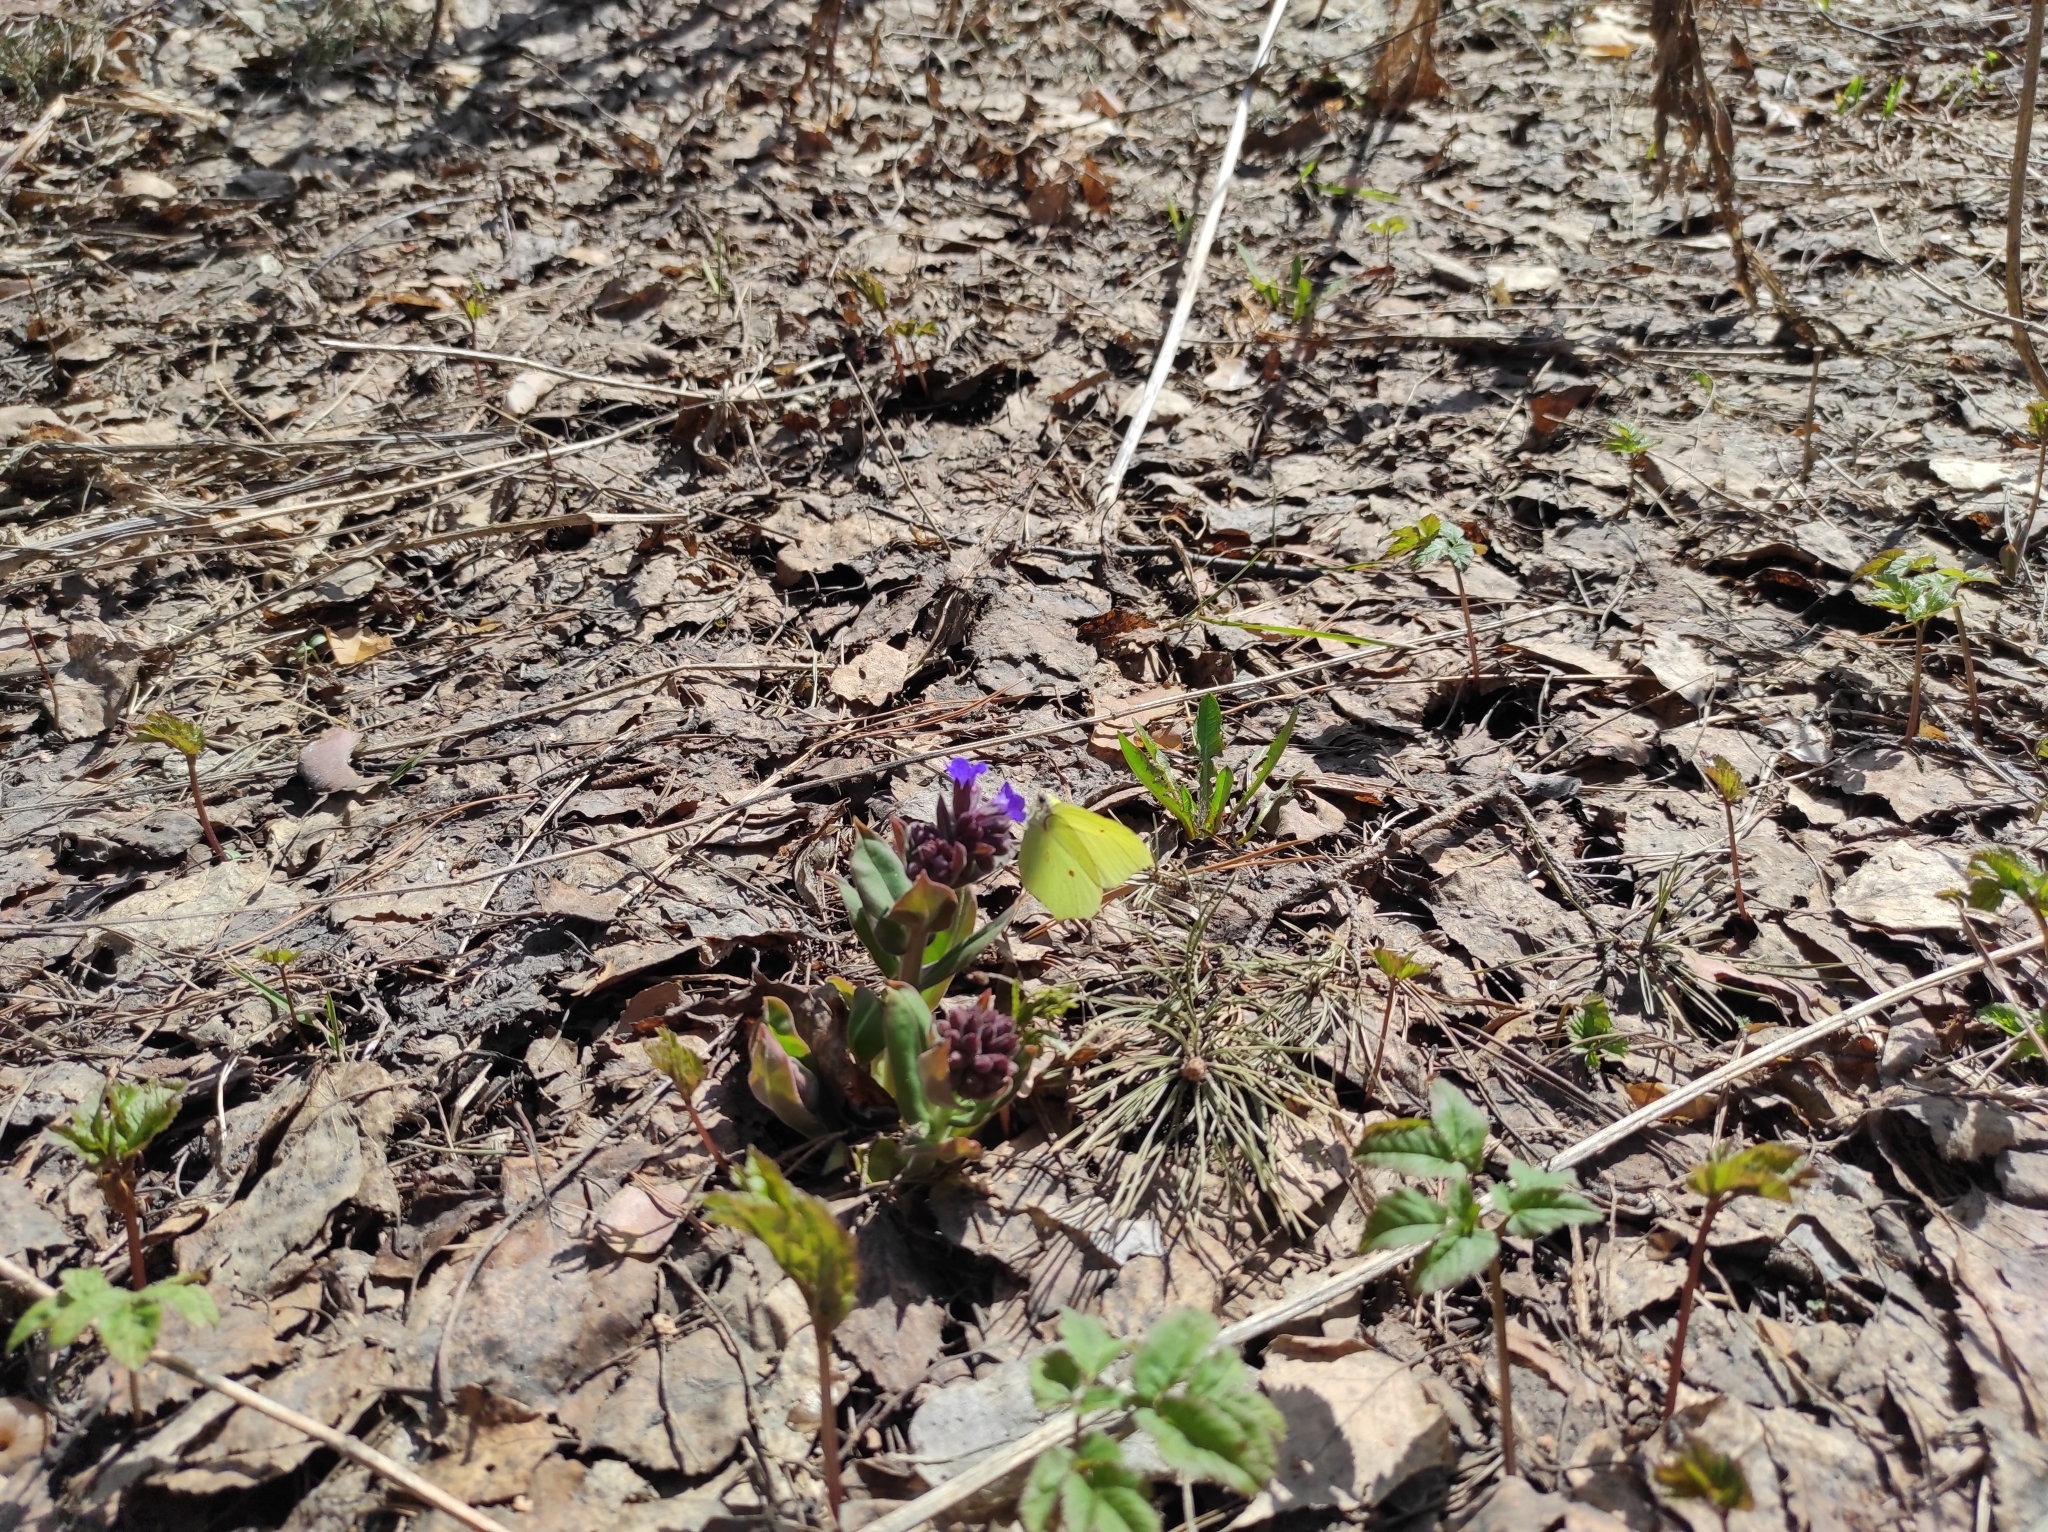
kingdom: Animalia
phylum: Arthropoda
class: Insecta
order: Lepidoptera
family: Pieridae
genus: Gonepteryx
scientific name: Gonepteryx rhamni
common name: Brimstone
